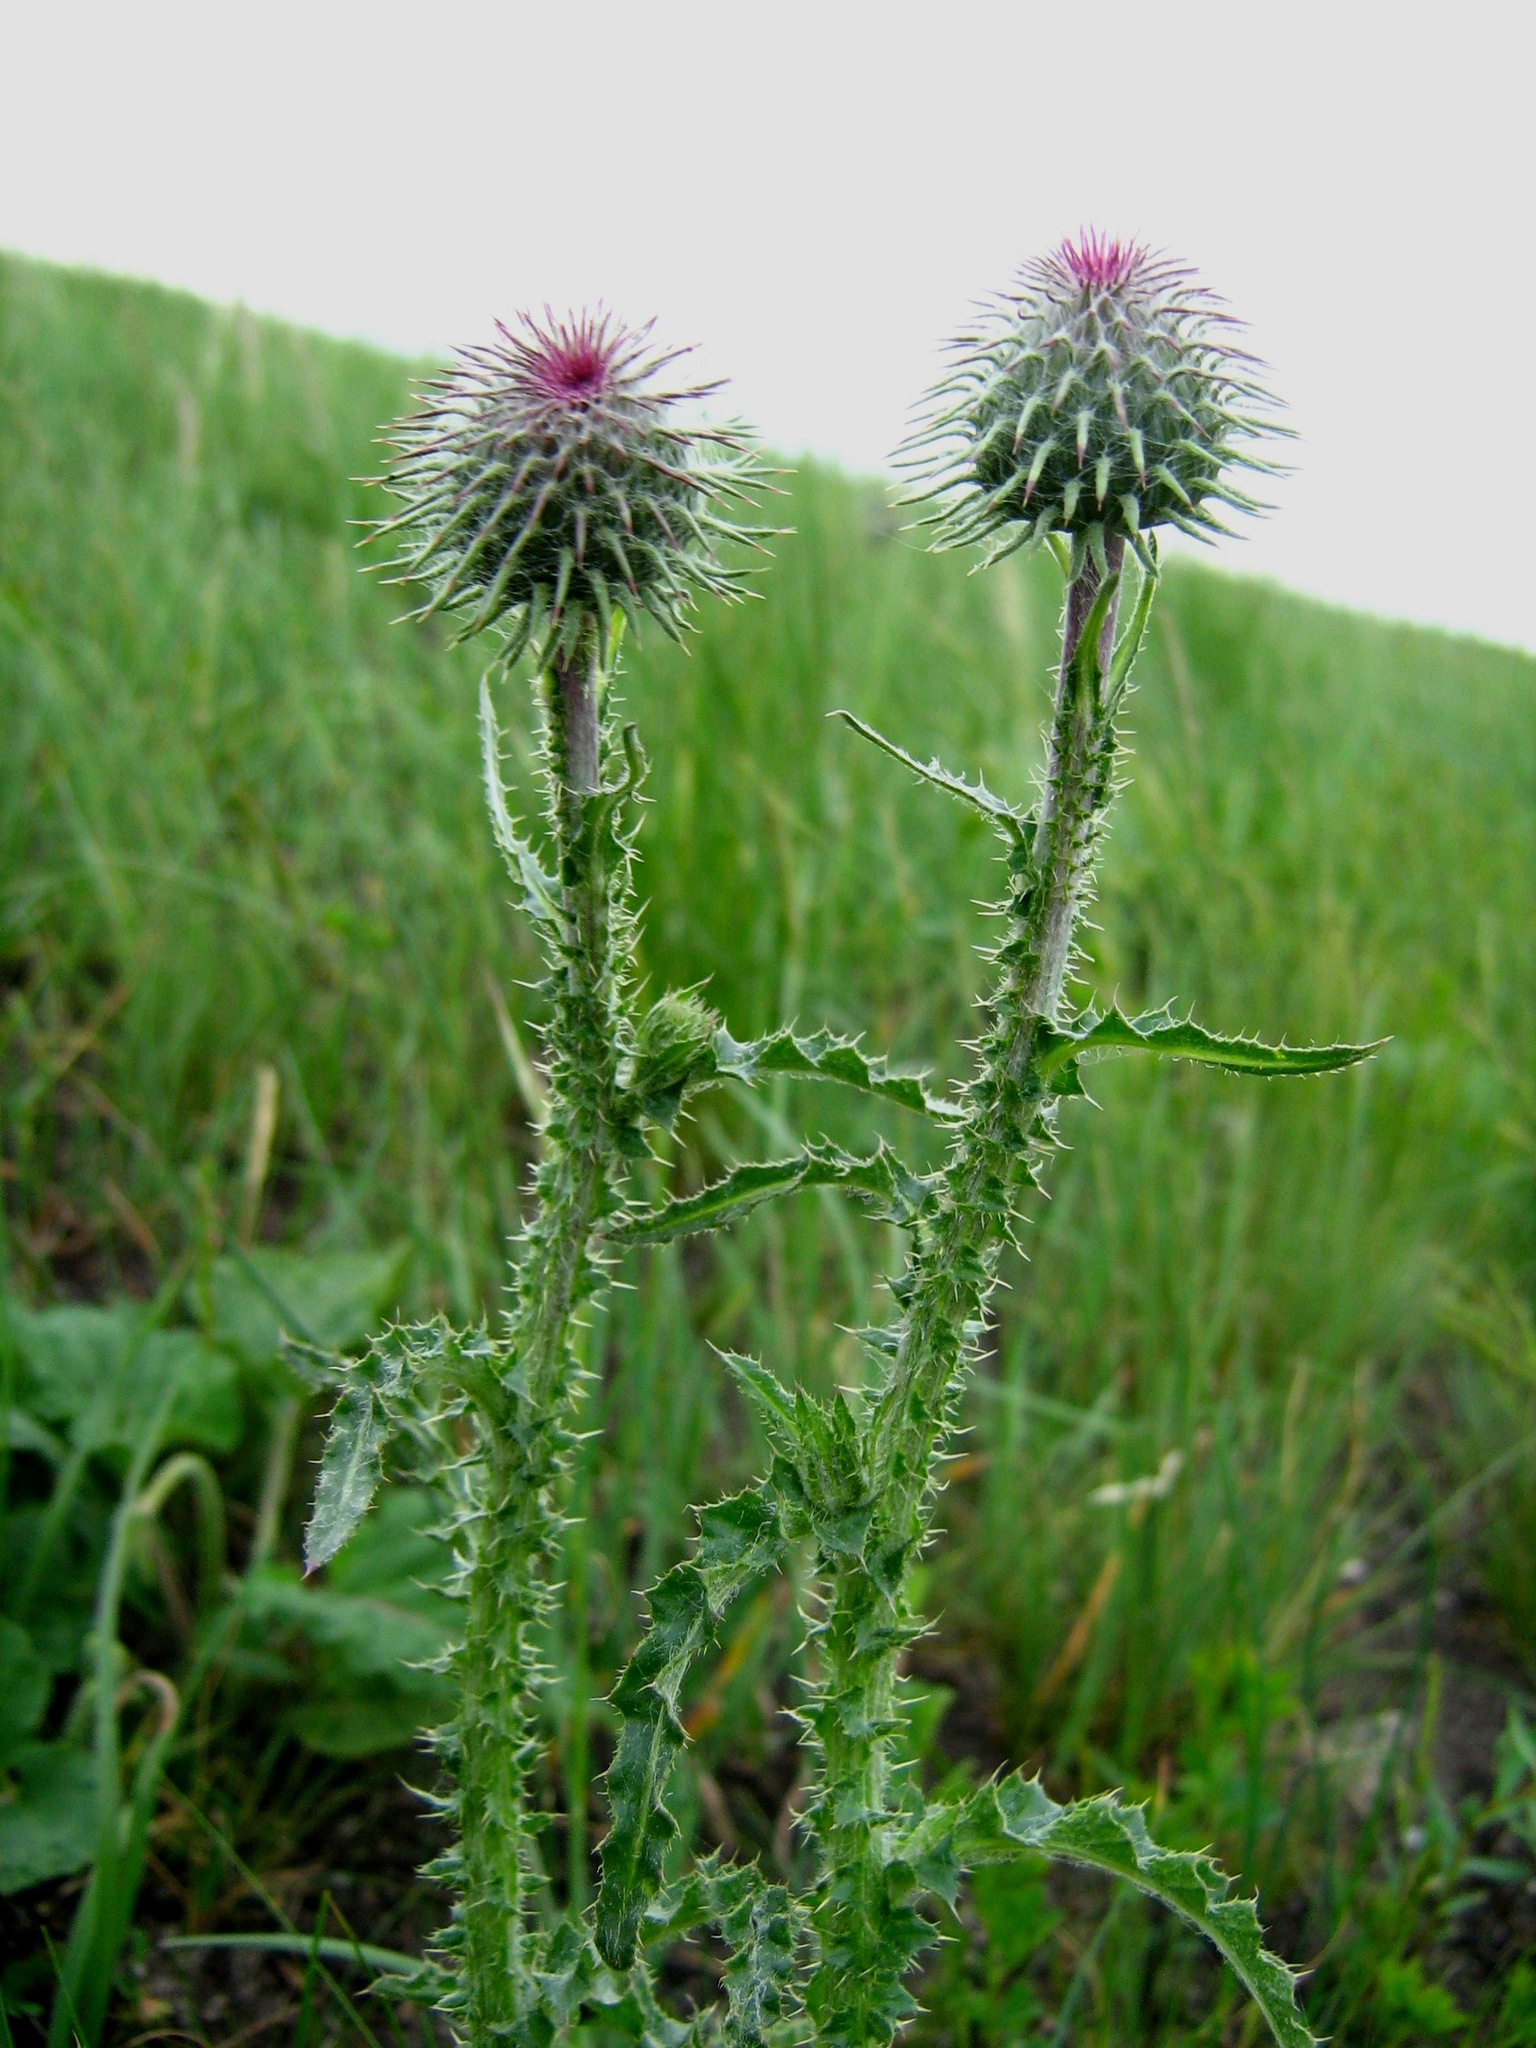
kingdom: Plantae
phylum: Tracheophyta
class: Magnoliopsida
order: Asterales
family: Asteraceae
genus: Carduus
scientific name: Carduus uncinatus
